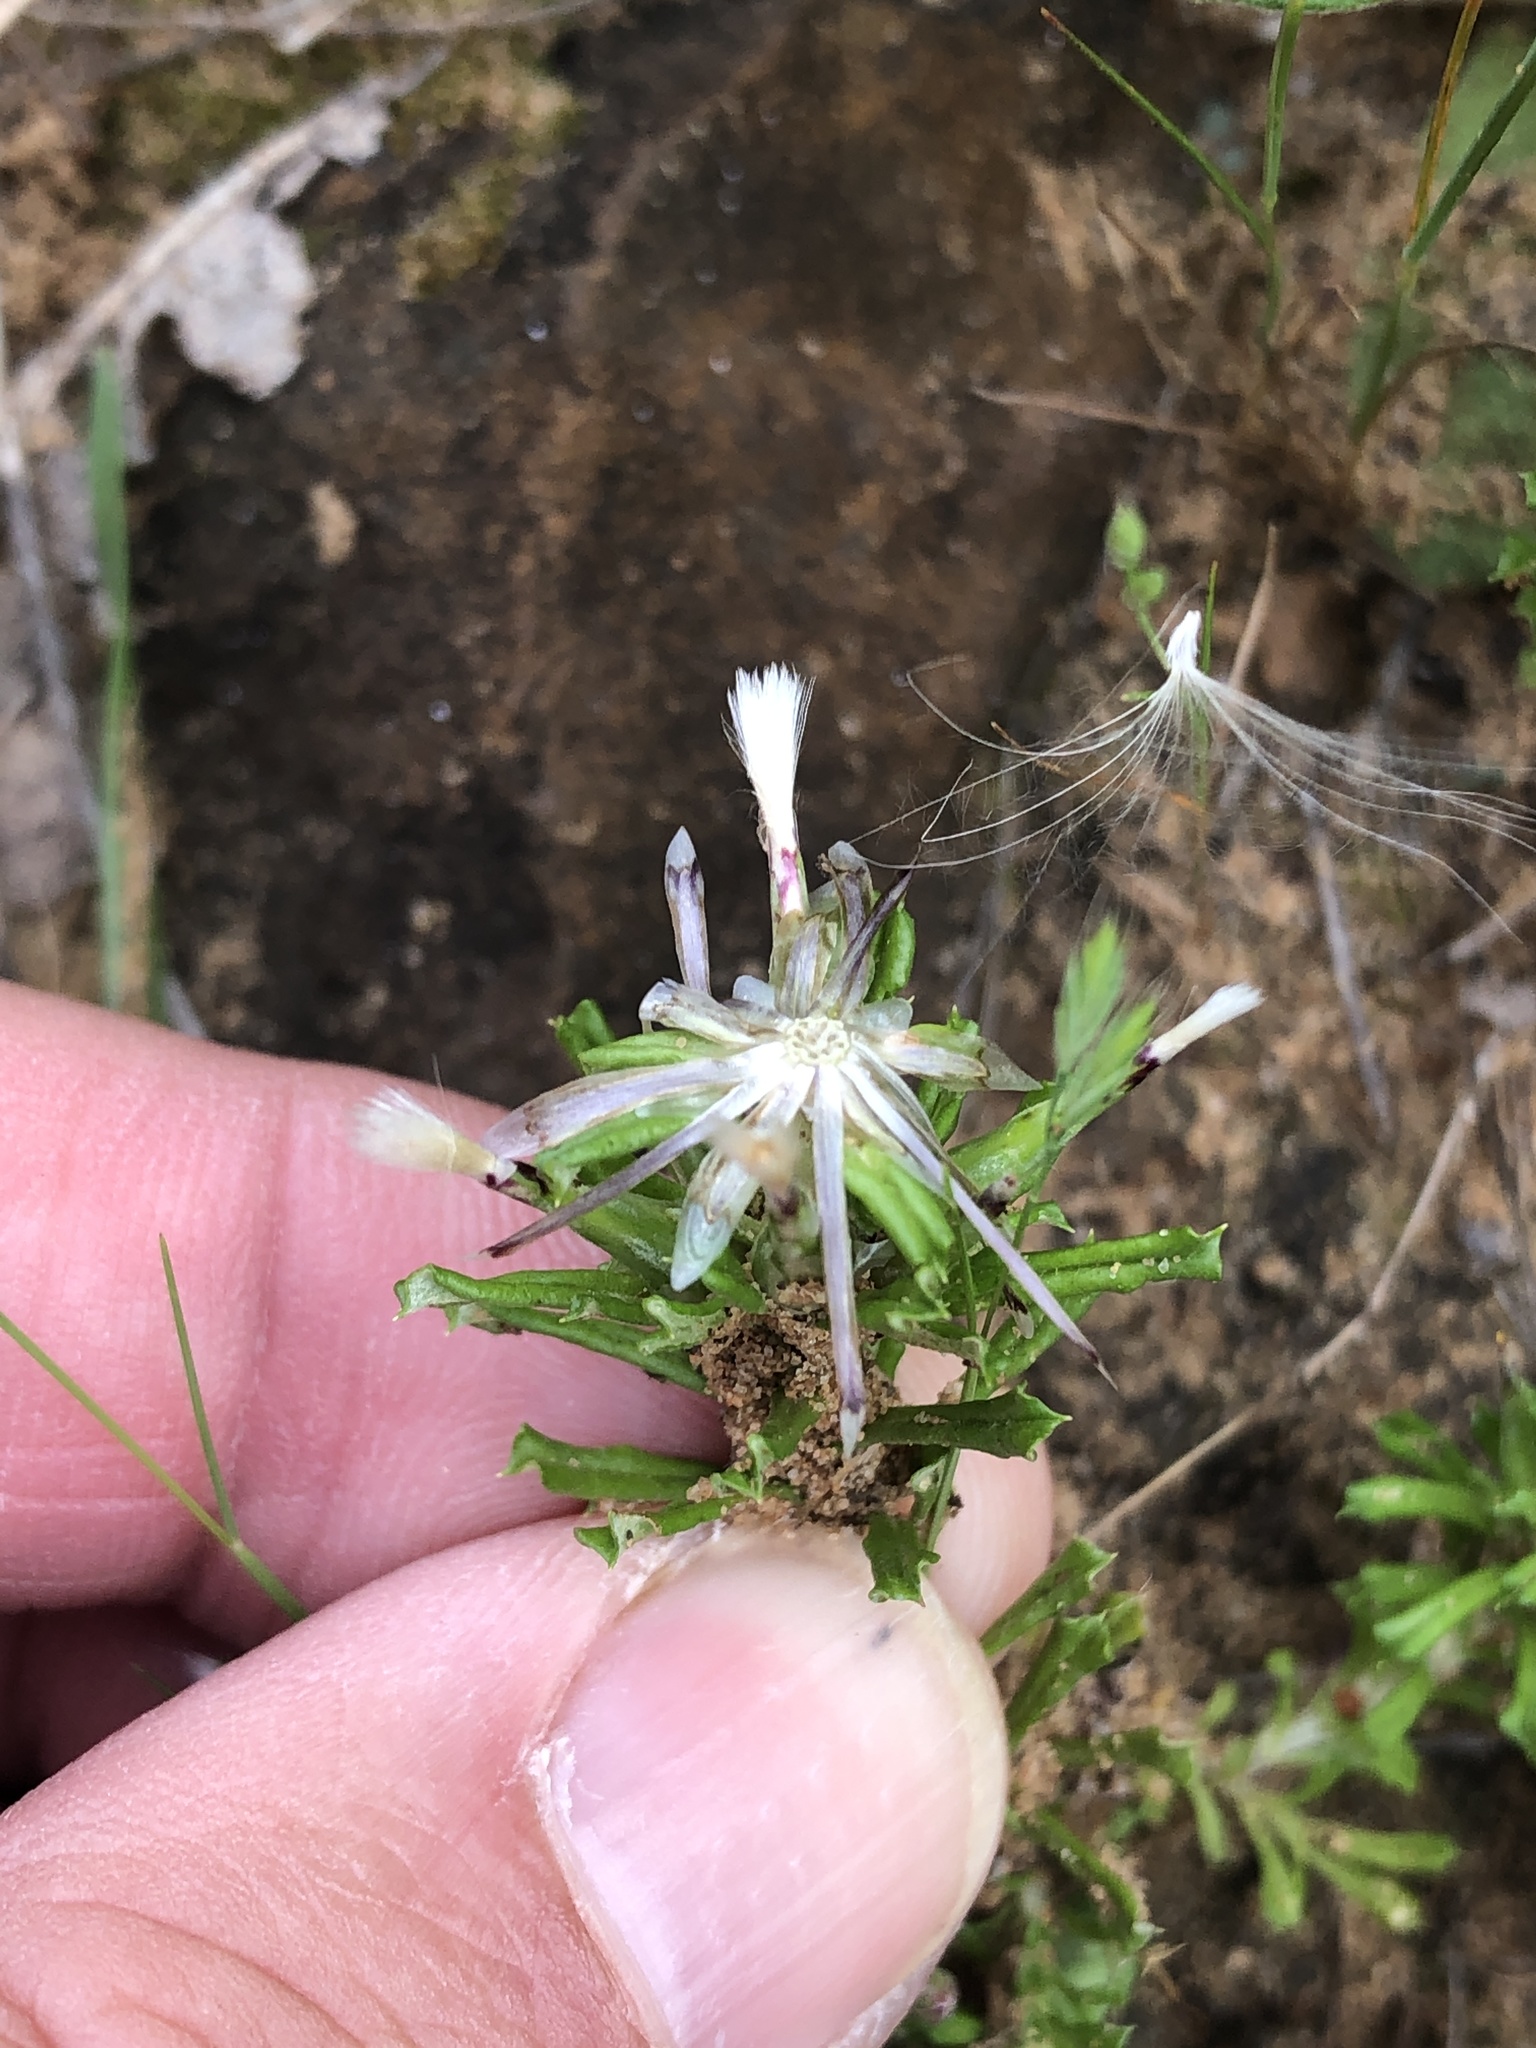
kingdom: Plantae
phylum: Tracheophyta
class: Magnoliopsida
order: Asterales
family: Asteraceae
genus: Facelis
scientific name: Facelis retusa
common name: Annual trampweed
